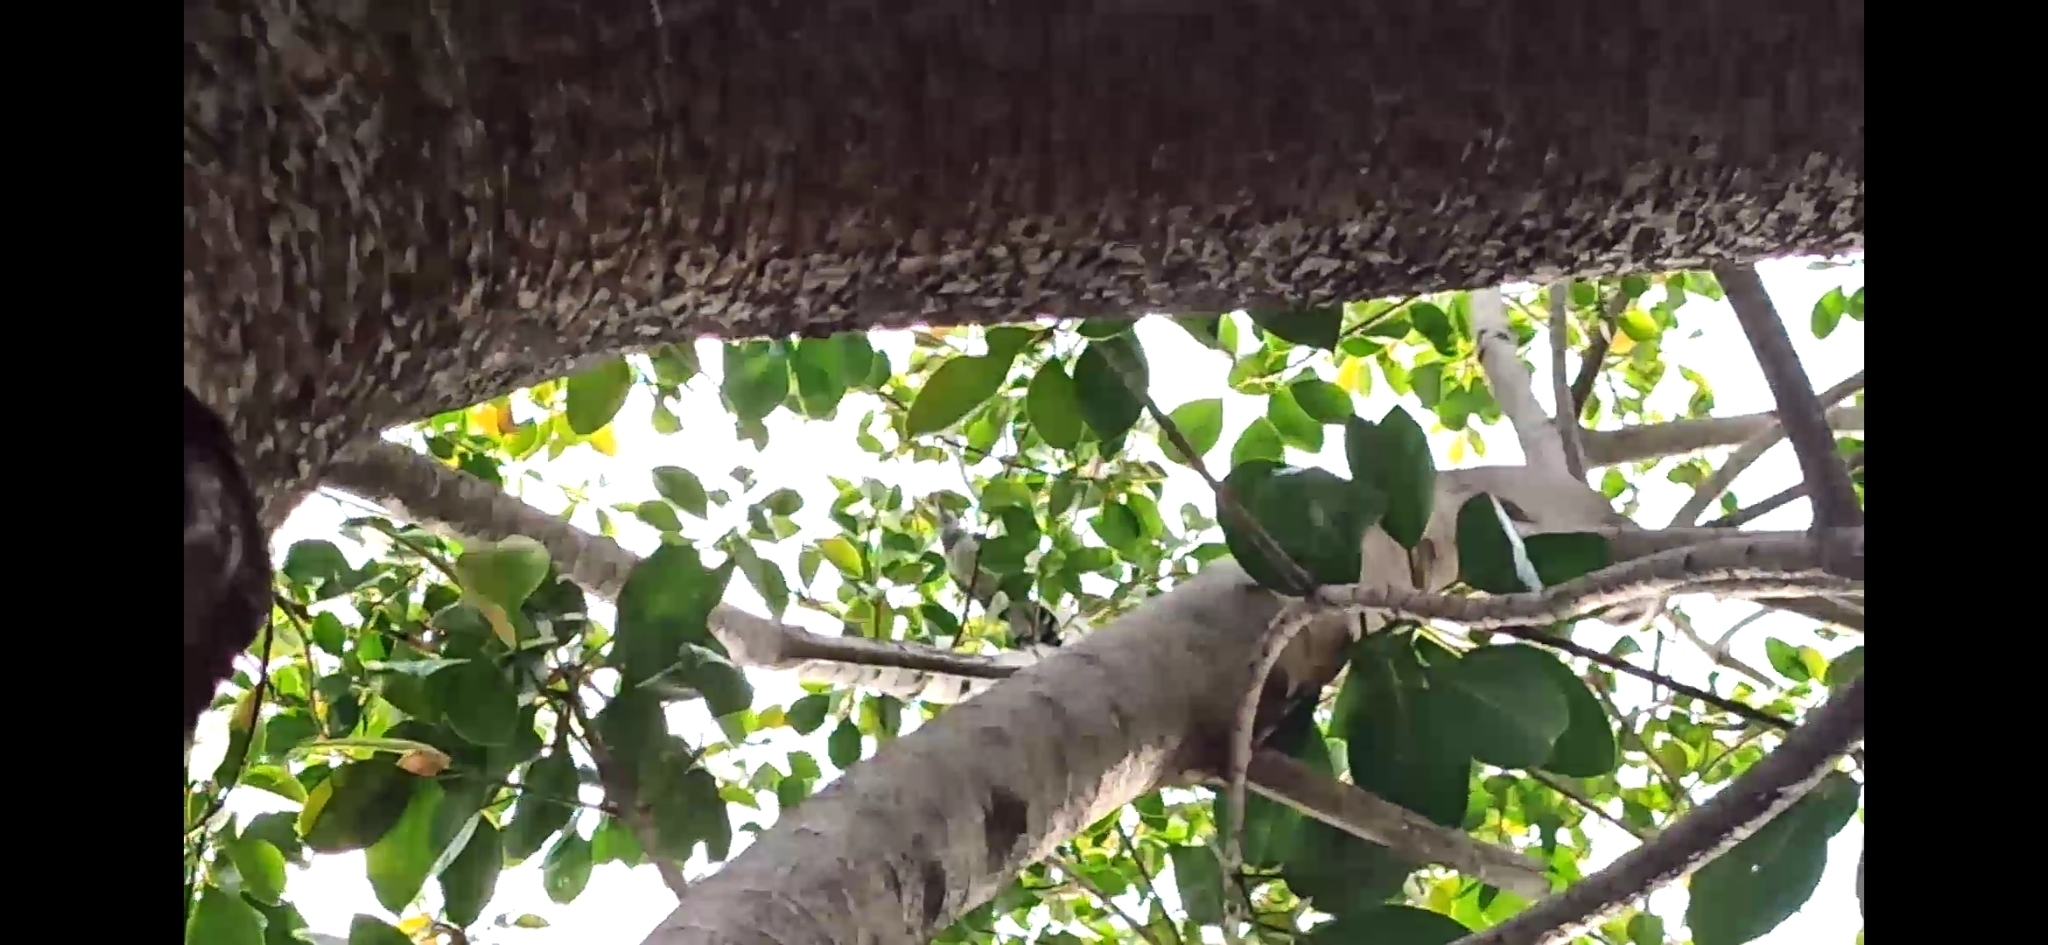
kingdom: Animalia
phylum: Chordata
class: Aves
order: Cuculiformes
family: Cuculidae
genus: Scythrops
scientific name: Scythrops novaehollandiae
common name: Channel-billed cuckoo
